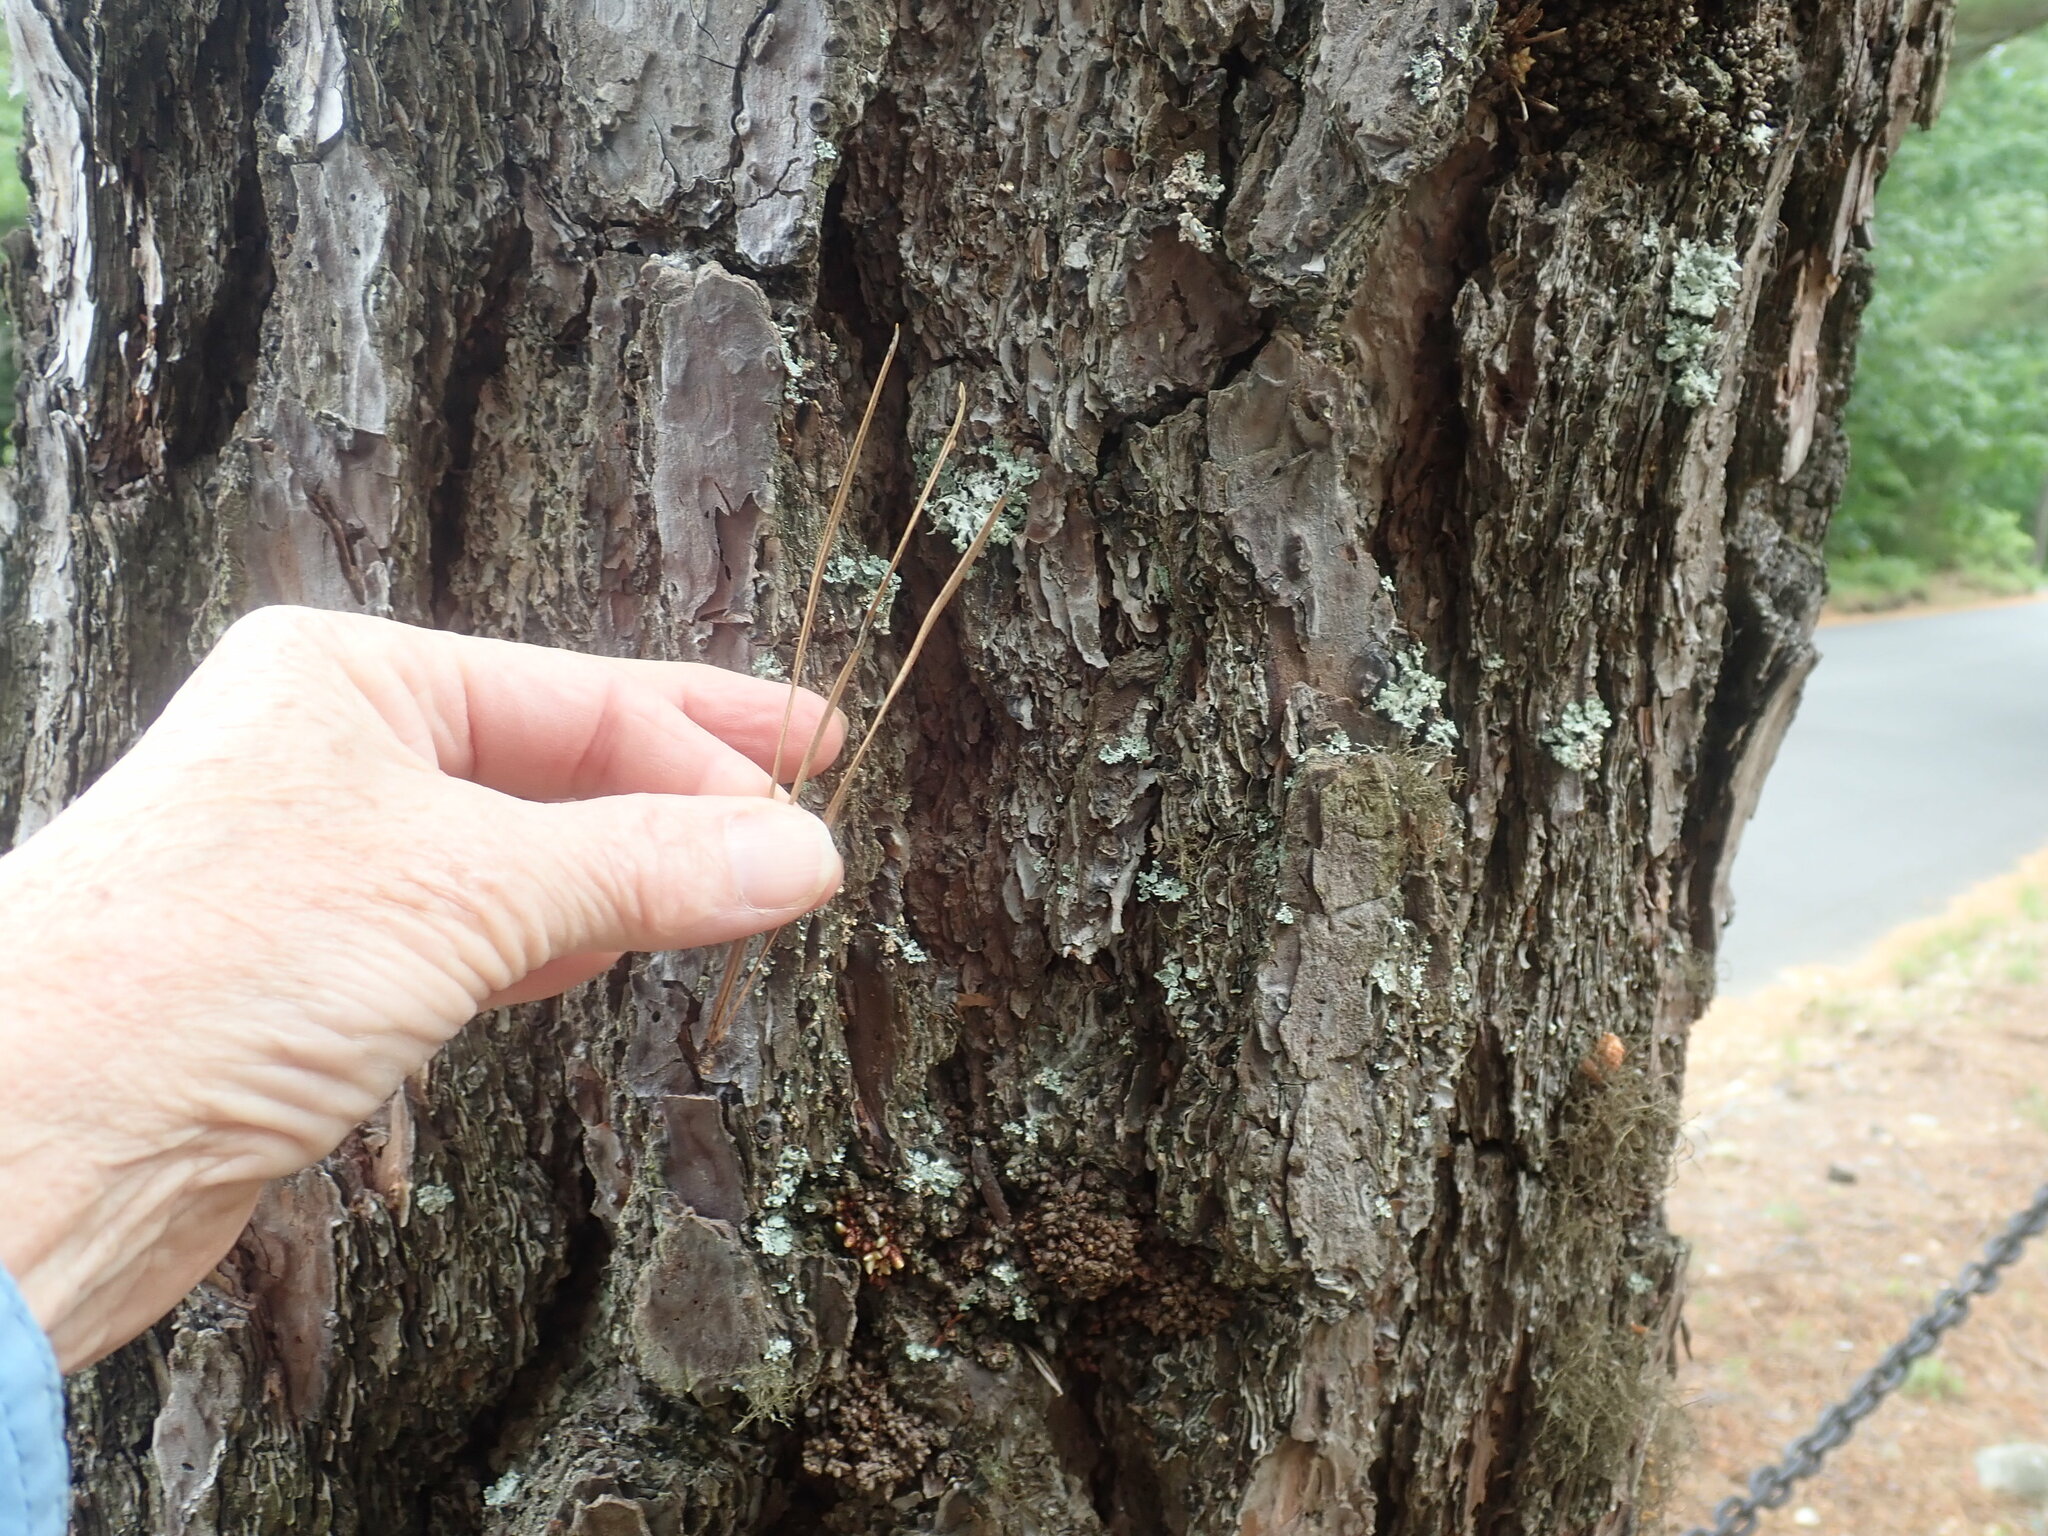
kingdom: Plantae
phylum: Tracheophyta
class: Pinopsida
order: Pinales
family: Pinaceae
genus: Pinus
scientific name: Pinus rigida
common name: Pitch pine
